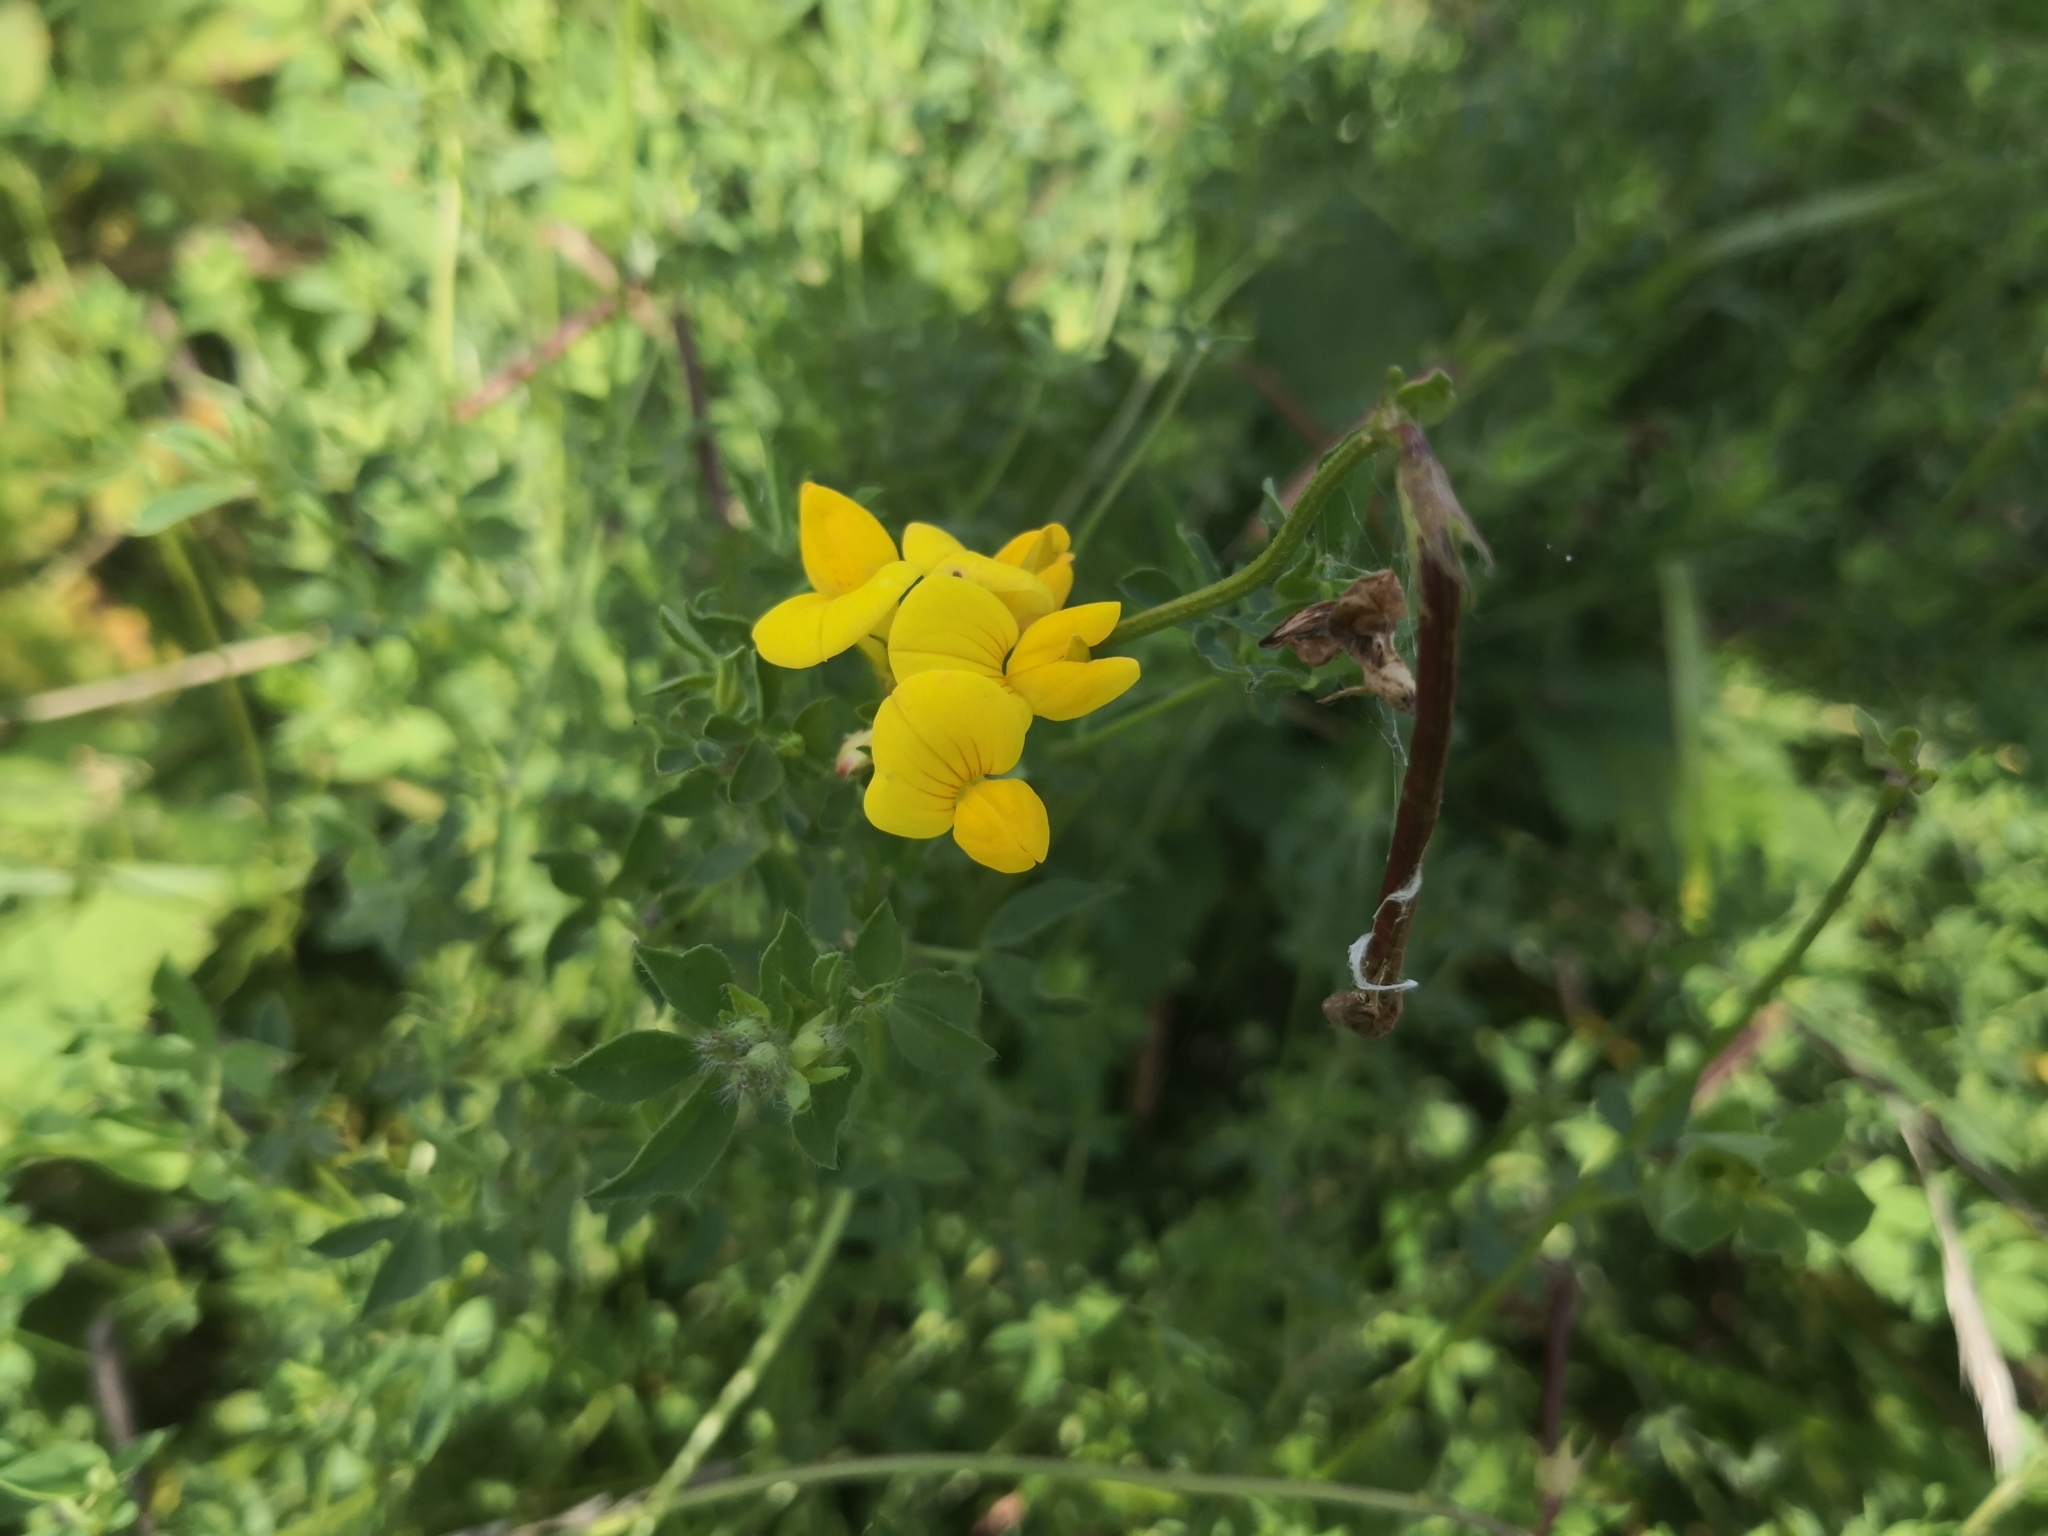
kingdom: Plantae
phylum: Tracheophyta
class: Magnoliopsida
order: Fabales
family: Fabaceae
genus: Lotus
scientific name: Lotus corniculatus
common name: Common bird's-foot-trefoil
